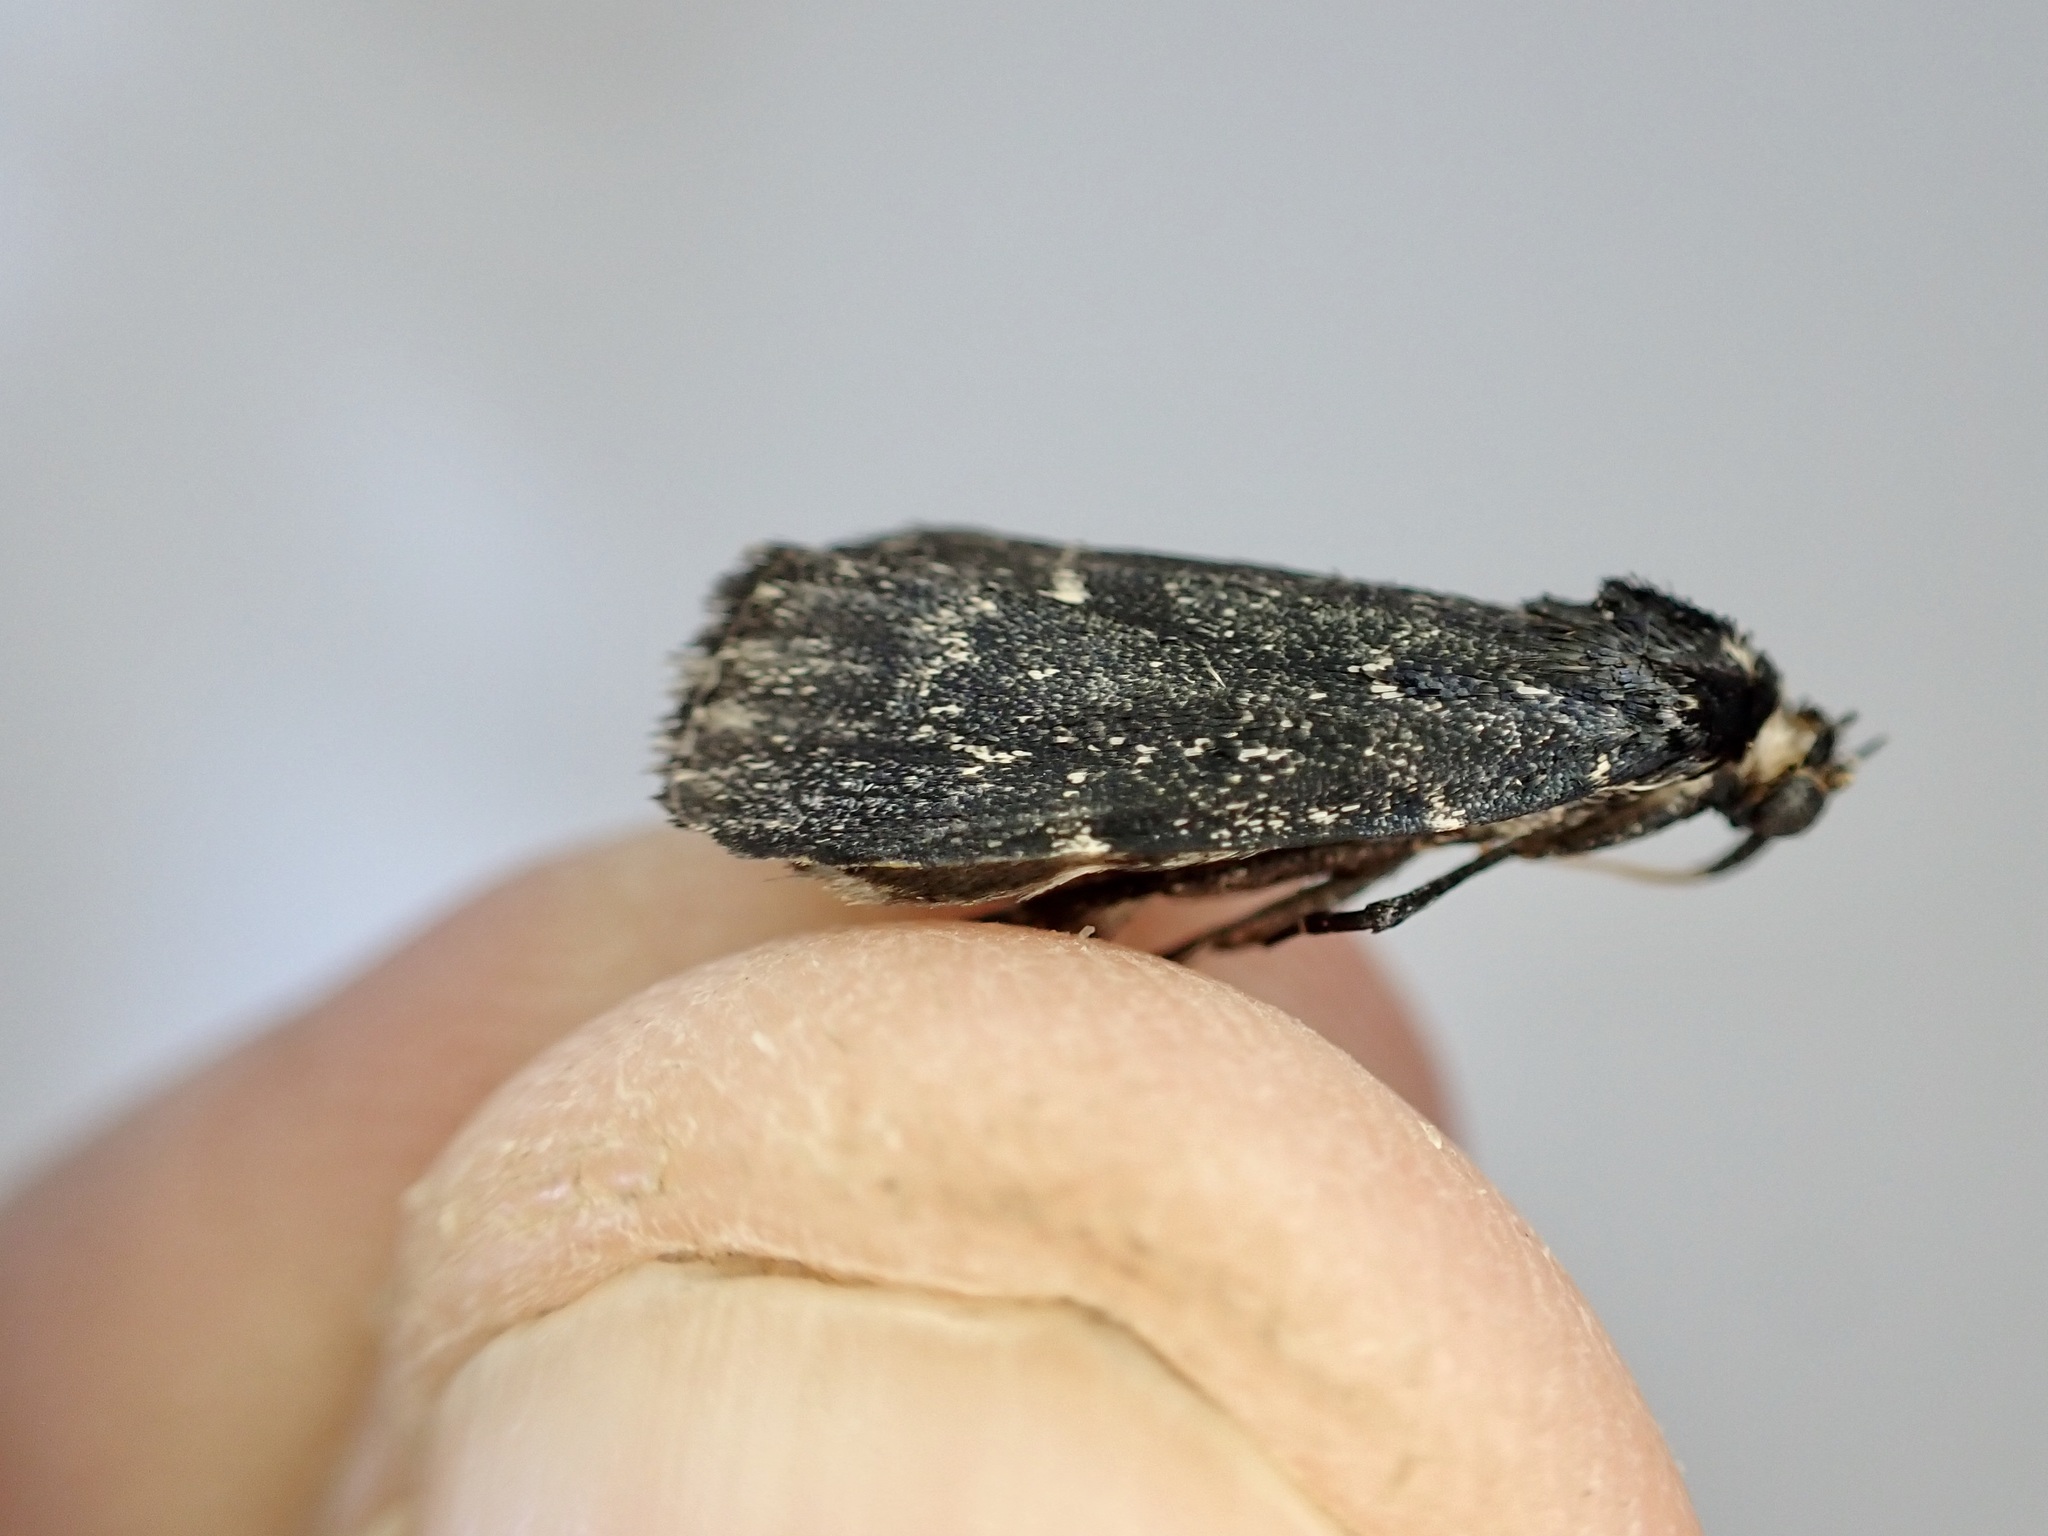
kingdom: Animalia
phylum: Arthropoda
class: Insecta
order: Lepidoptera
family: Pyralidae
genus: Stericta
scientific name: Stericta carbonalis
